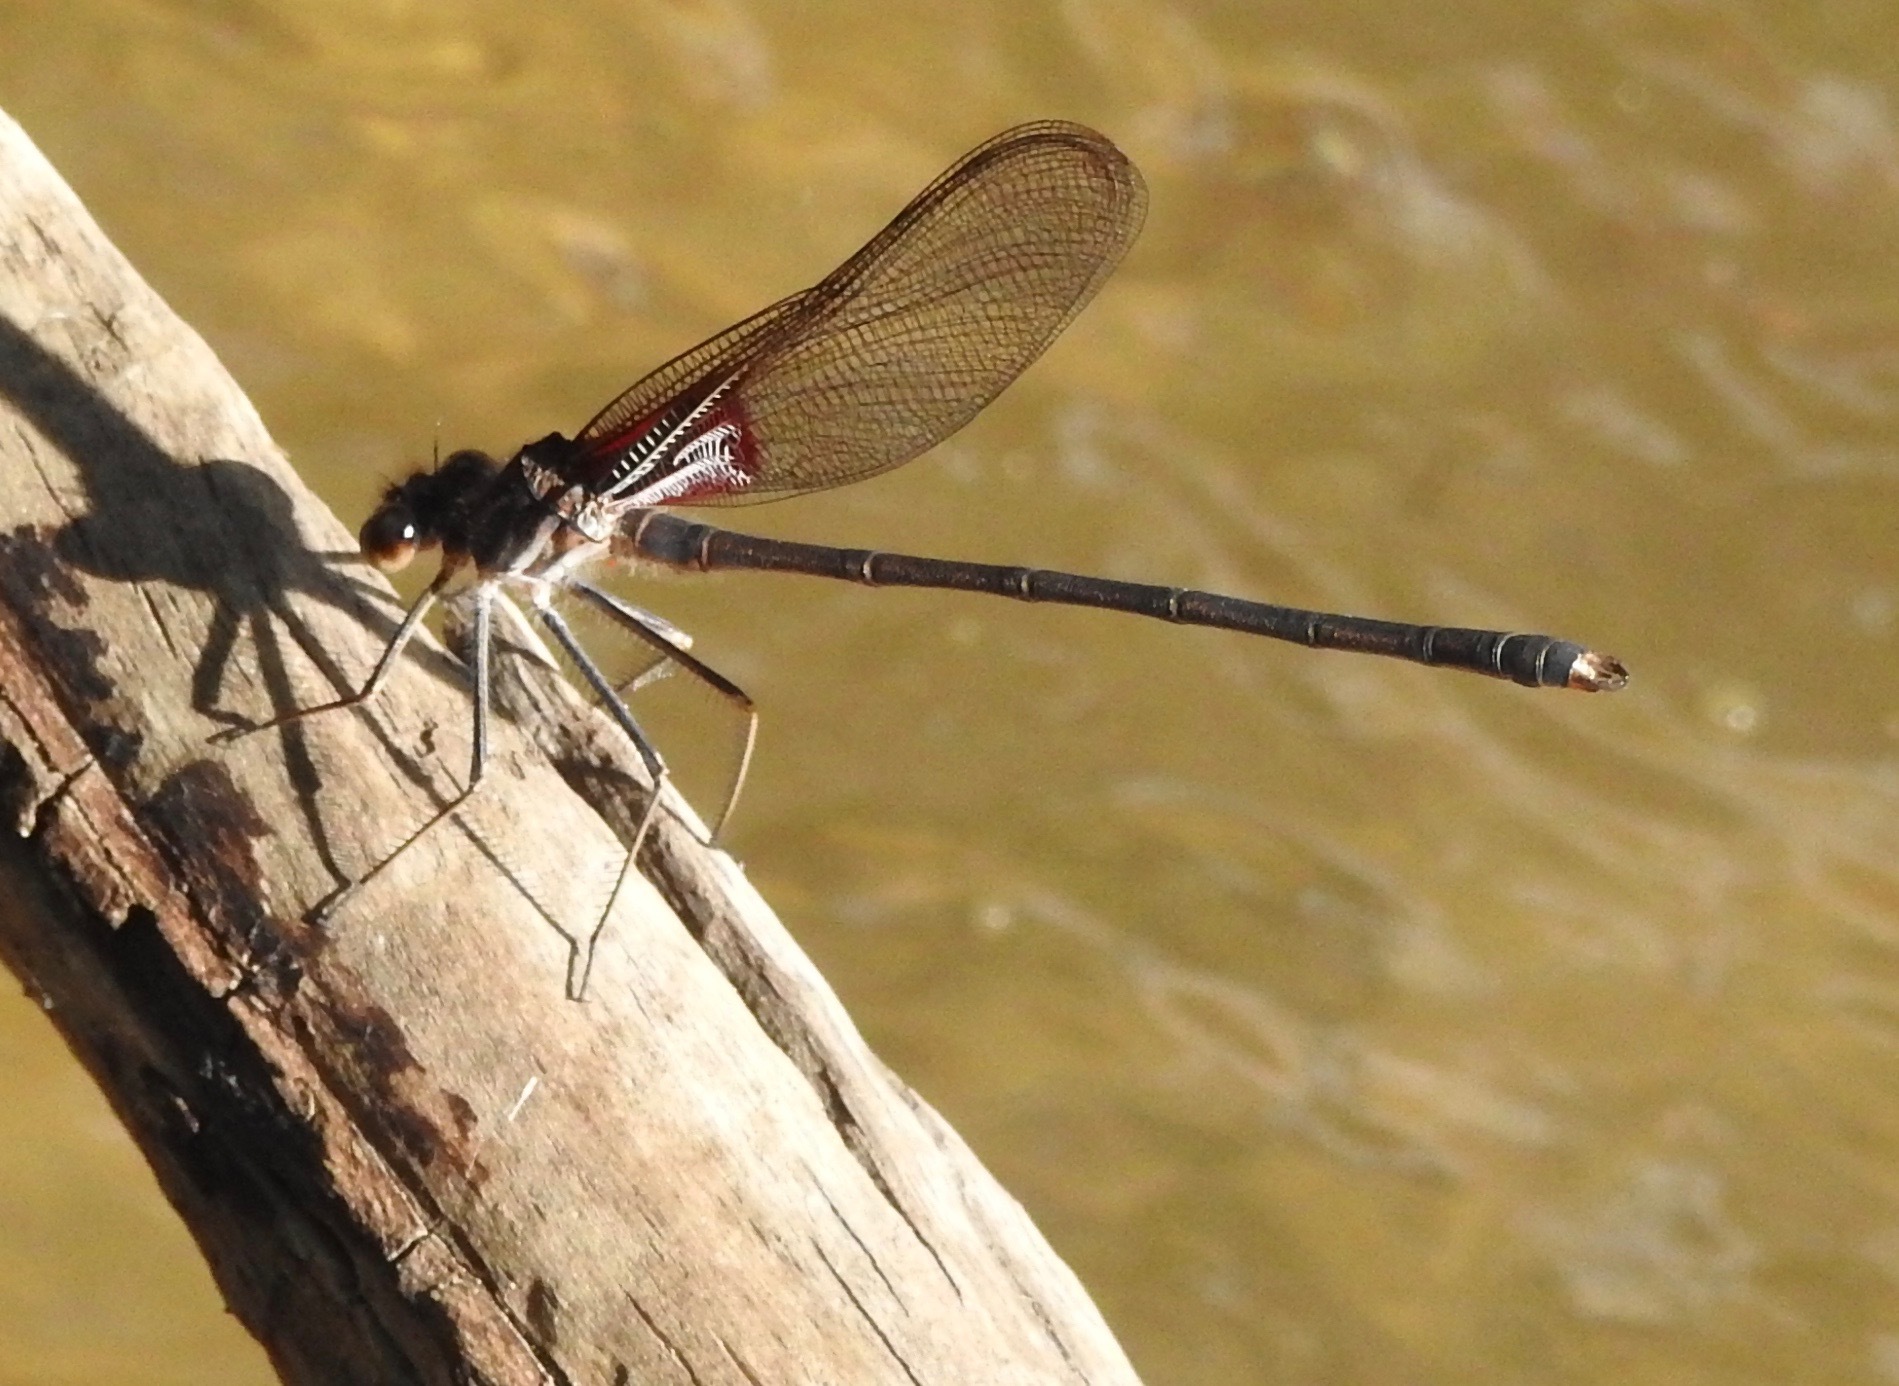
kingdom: Animalia
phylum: Arthropoda
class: Insecta
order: Odonata
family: Calopterygidae
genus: Hetaerina
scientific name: Hetaerina vulnerata
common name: Canyon rubyspot
